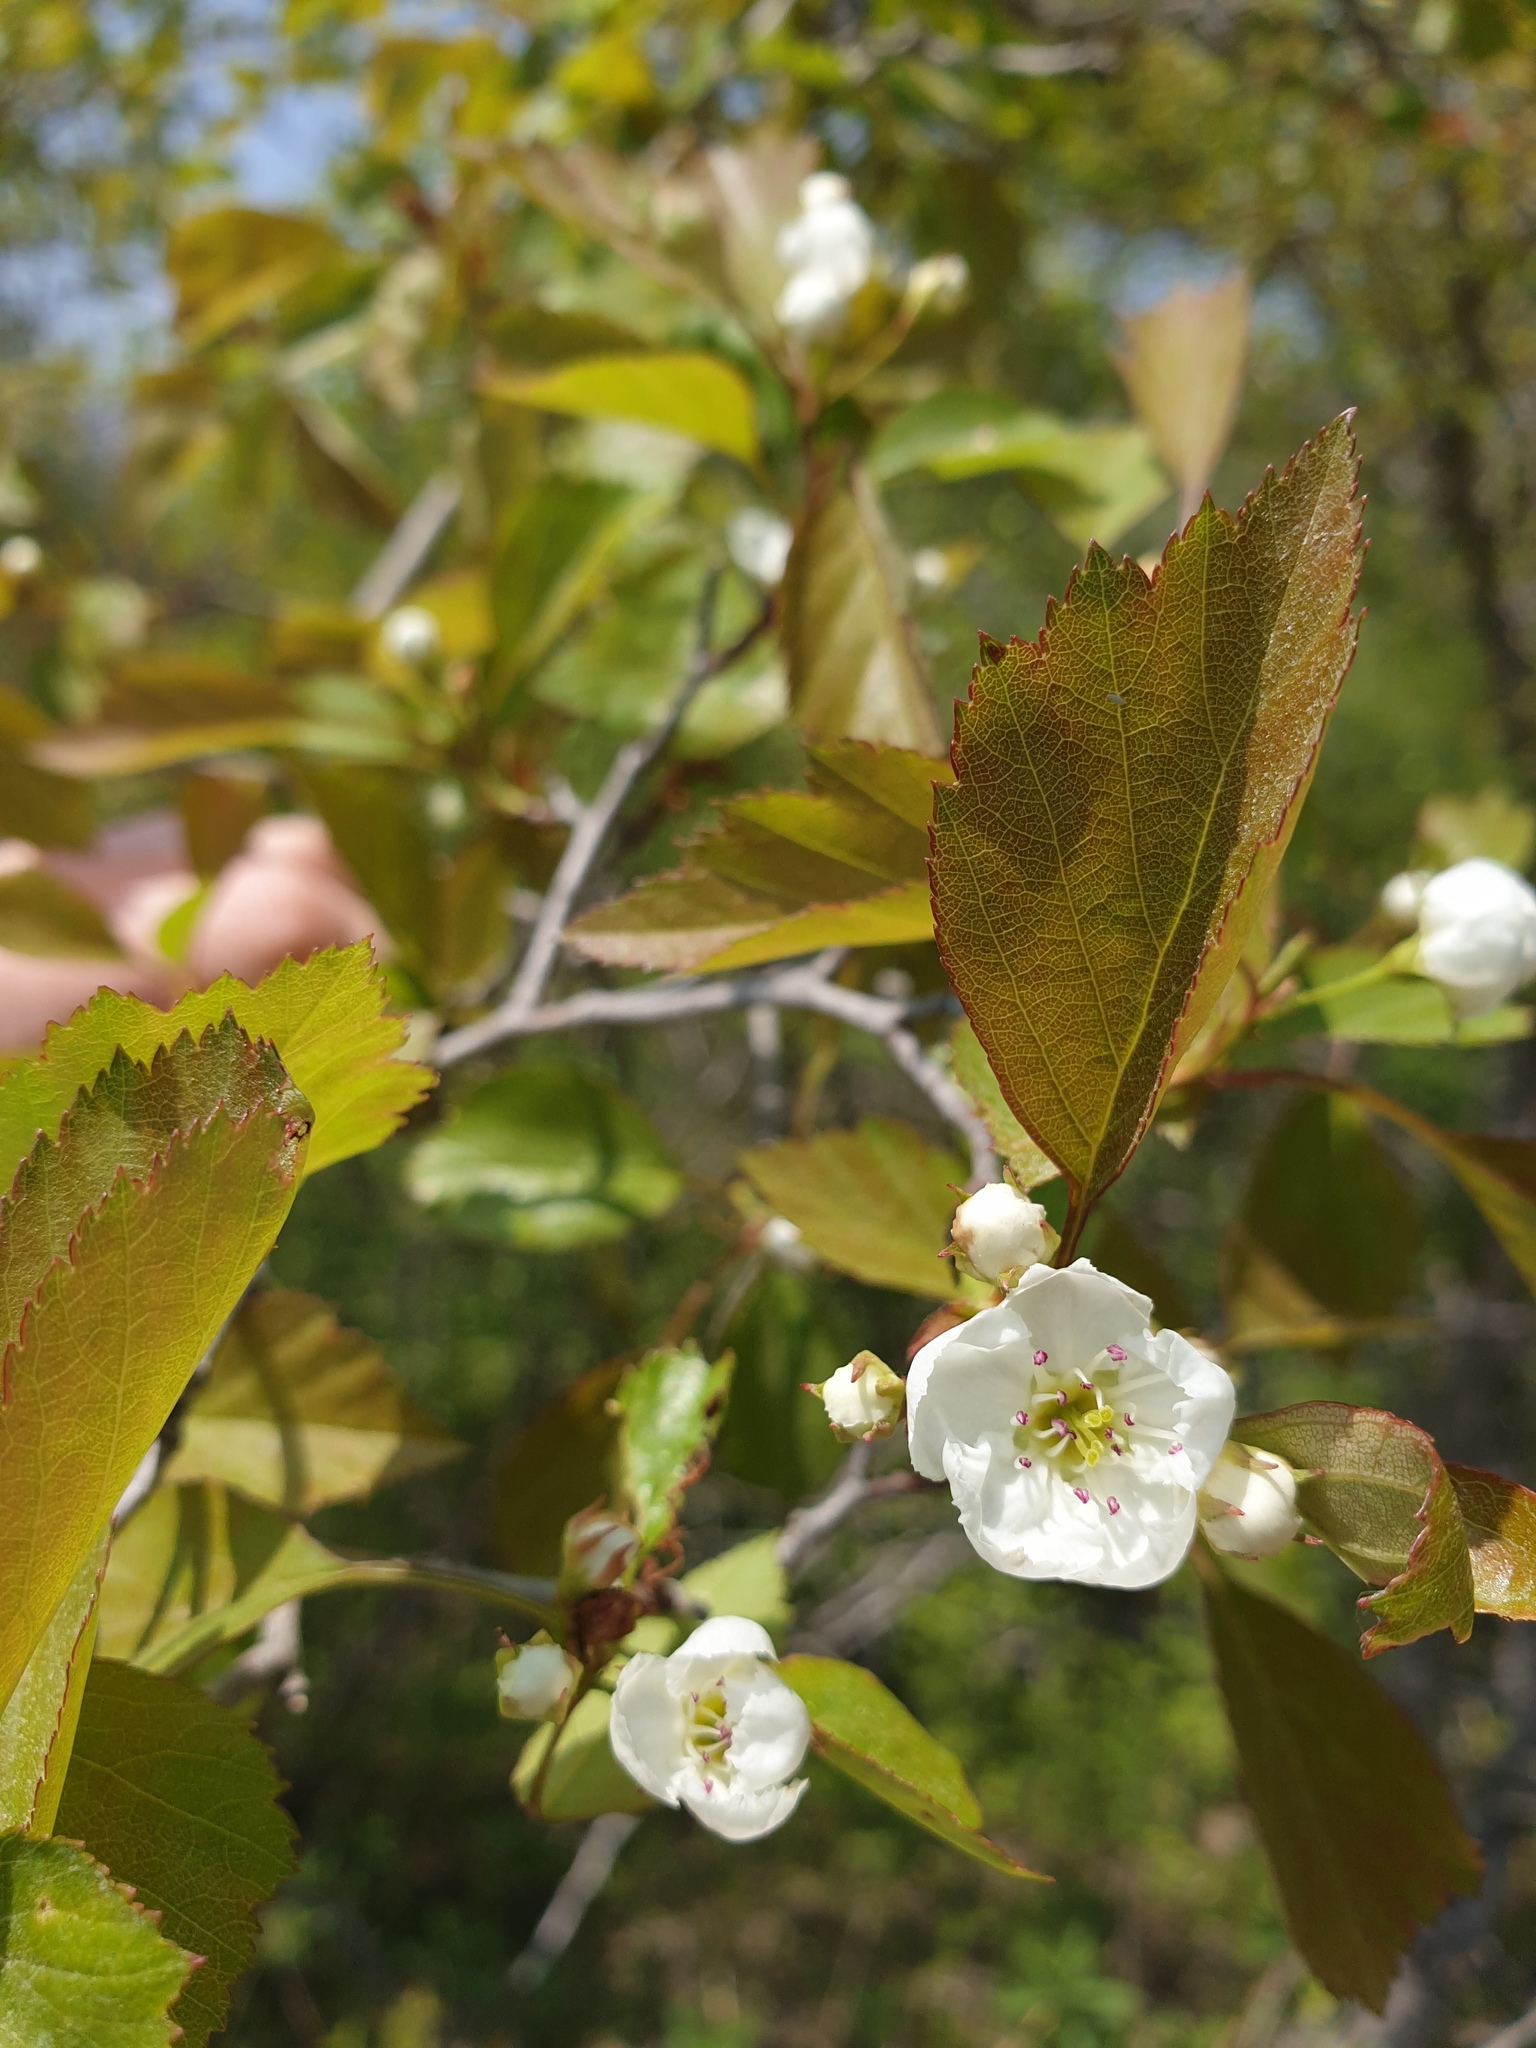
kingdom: Plantae
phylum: Tracheophyta
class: Magnoliopsida
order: Rosales
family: Rosaceae
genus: Crataegus
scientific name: Crataegus compacta
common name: Clustered hawthorn
